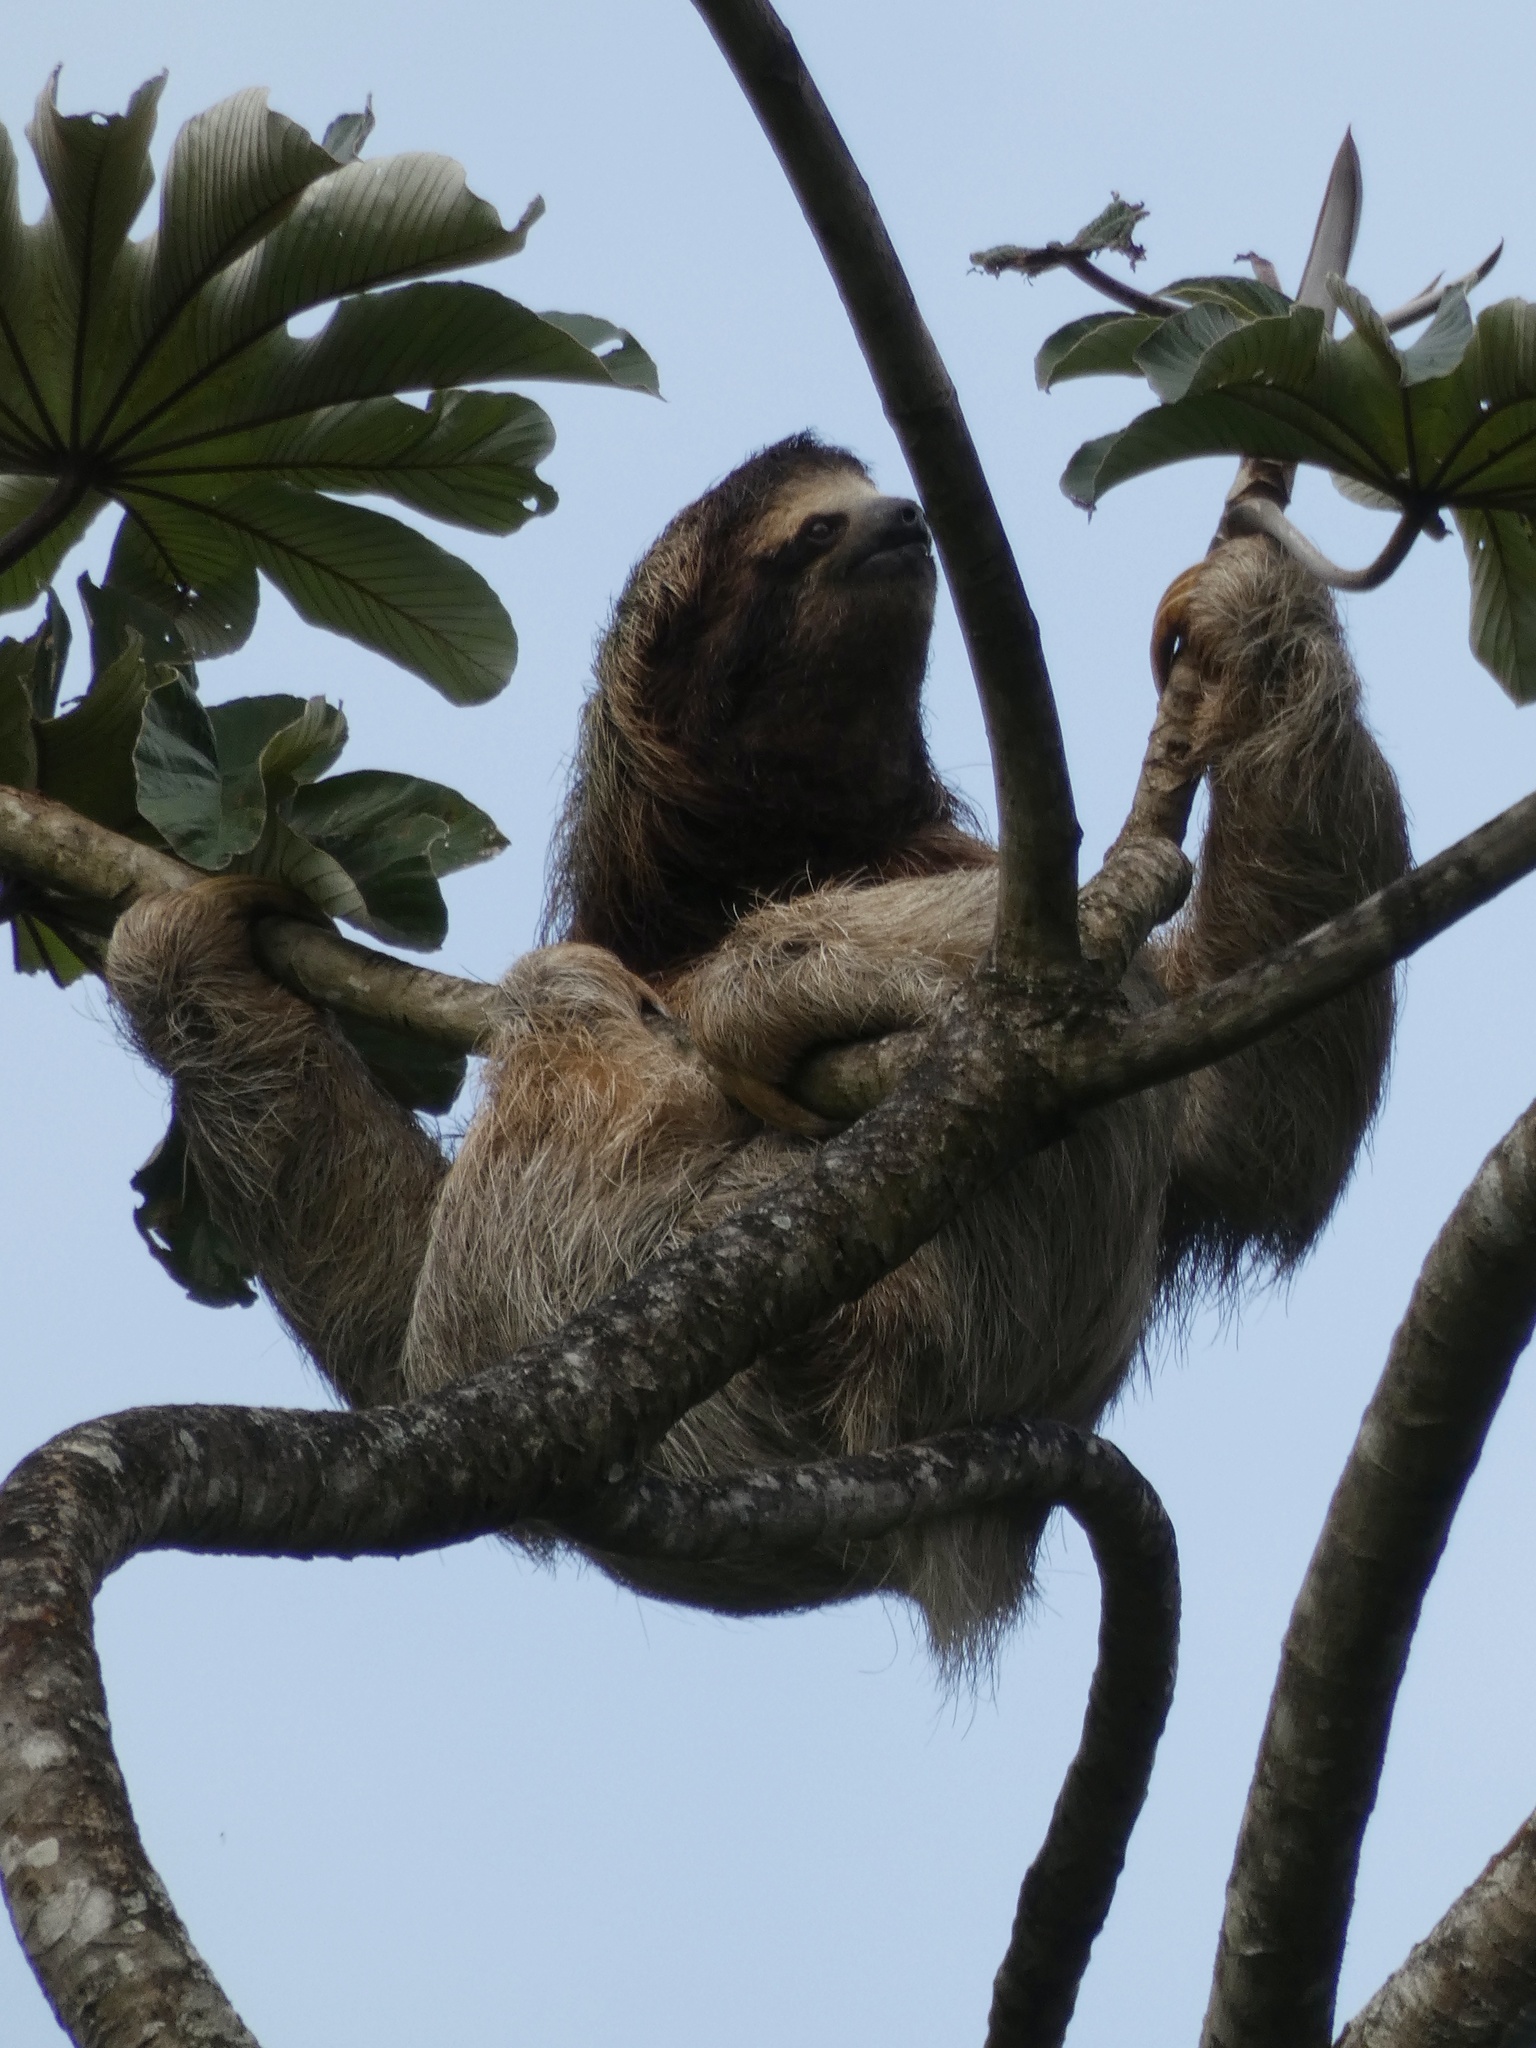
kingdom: Animalia
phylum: Chordata
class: Mammalia
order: Pilosa
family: Bradypodidae
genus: Bradypus
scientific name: Bradypus variegatus
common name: Brown-throated three-toed sloth
